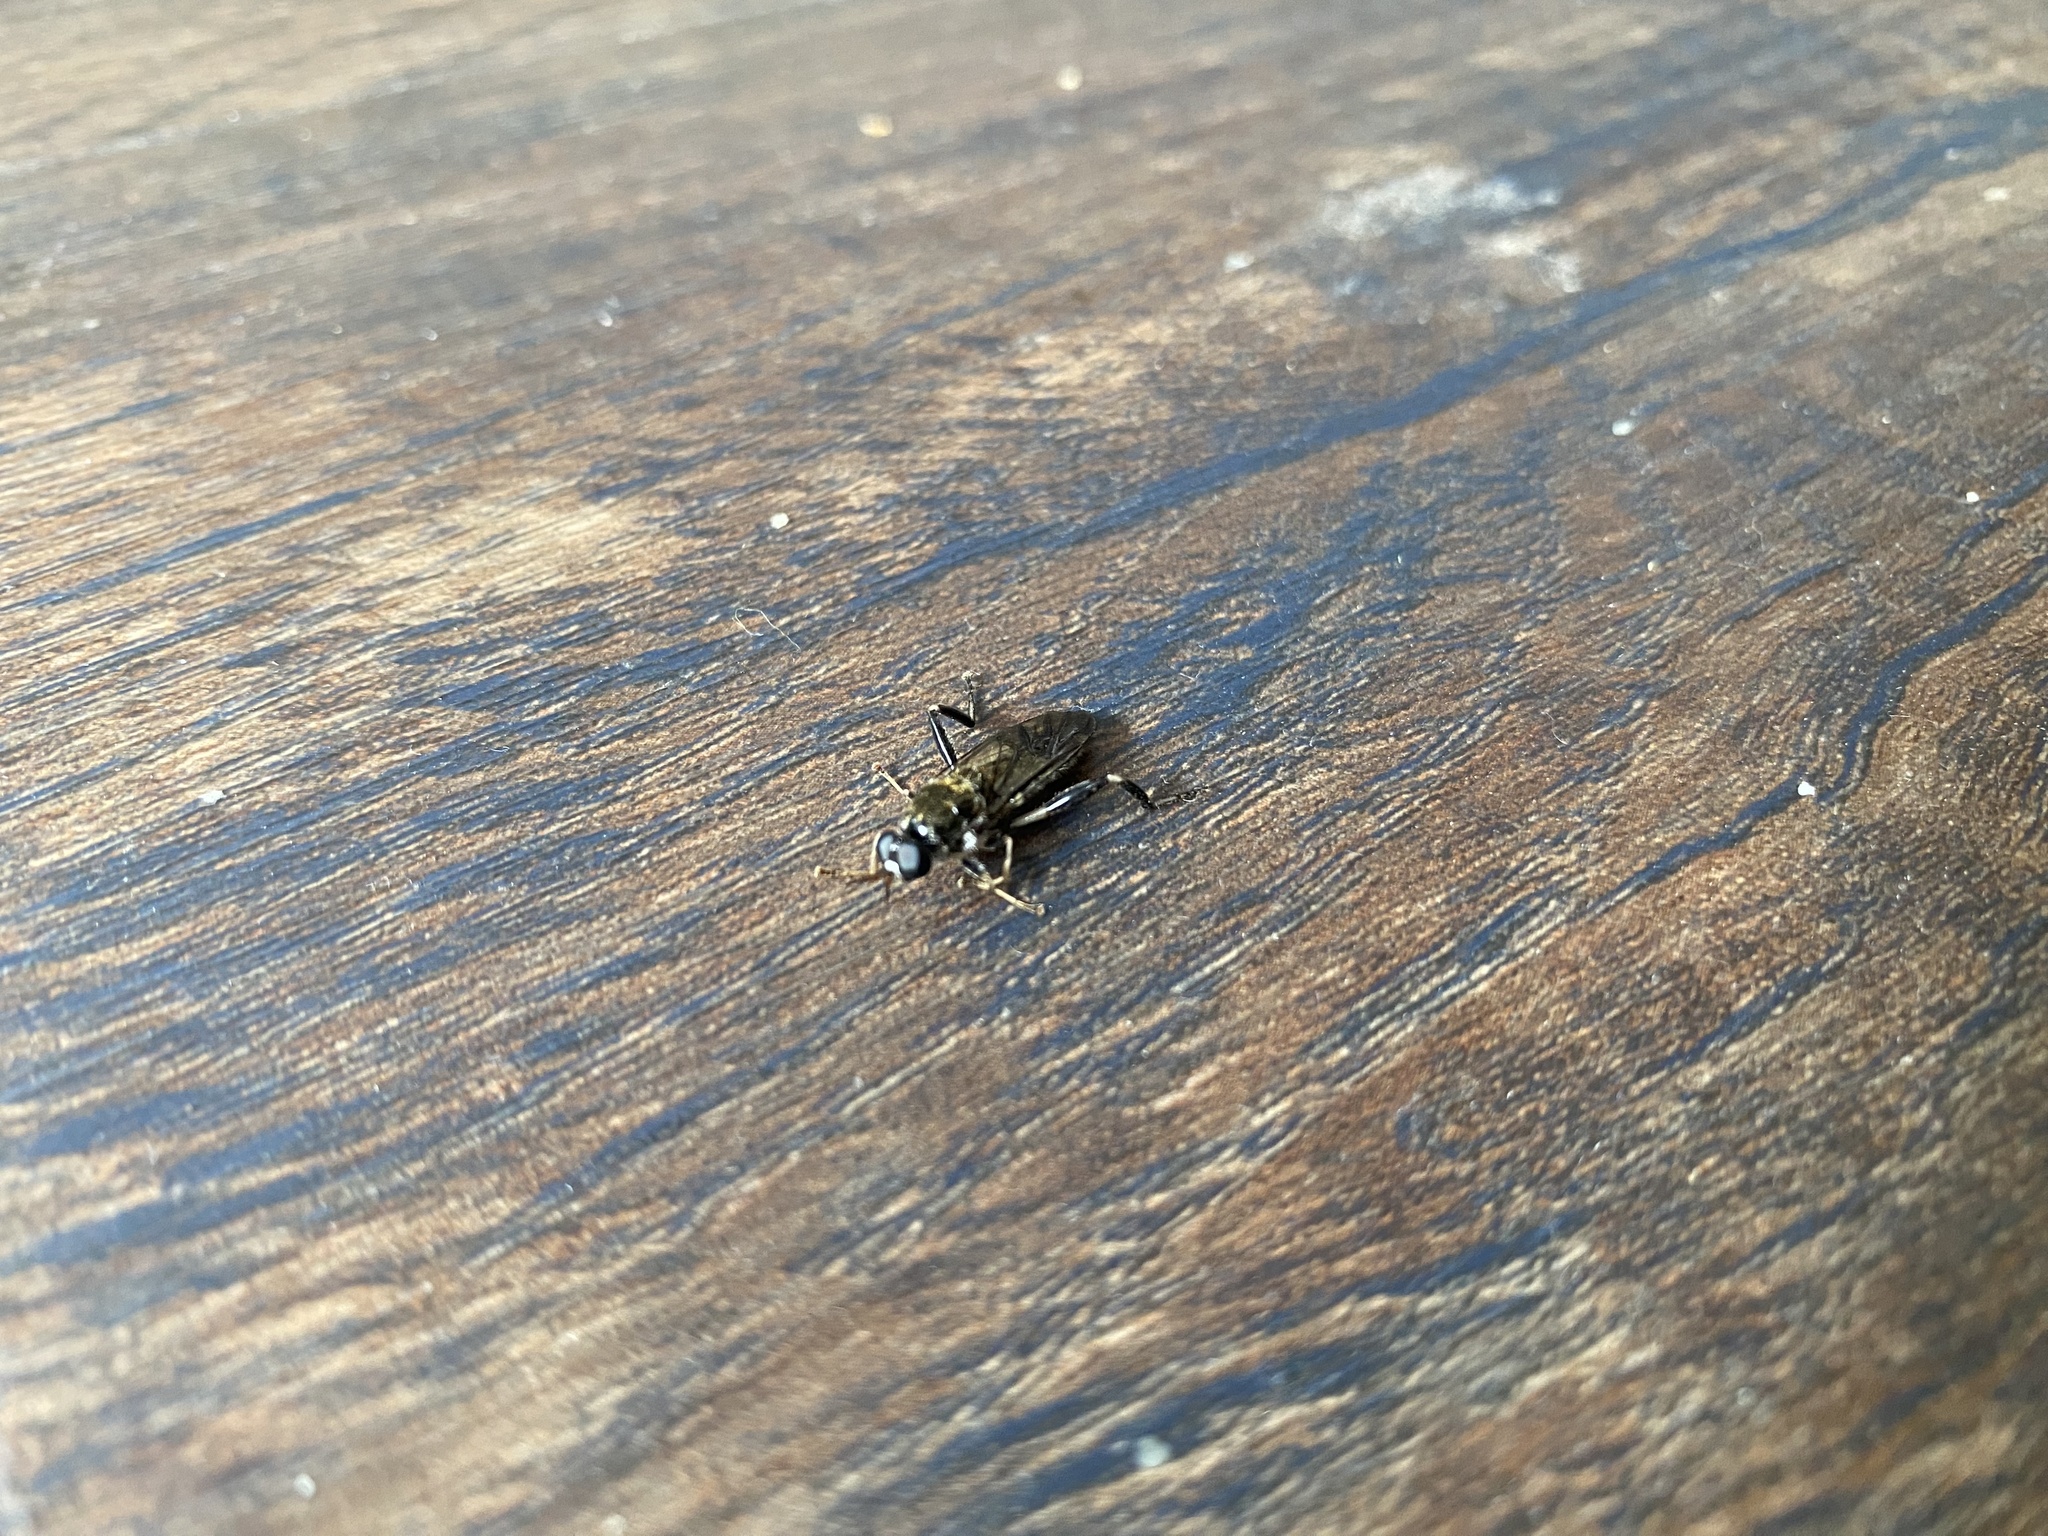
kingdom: Animalia
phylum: Arthropoda
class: Insecta
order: Diptera
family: Stratiomyidae
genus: Exaireta
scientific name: Exaireta spinigera
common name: Blue soldier fly
